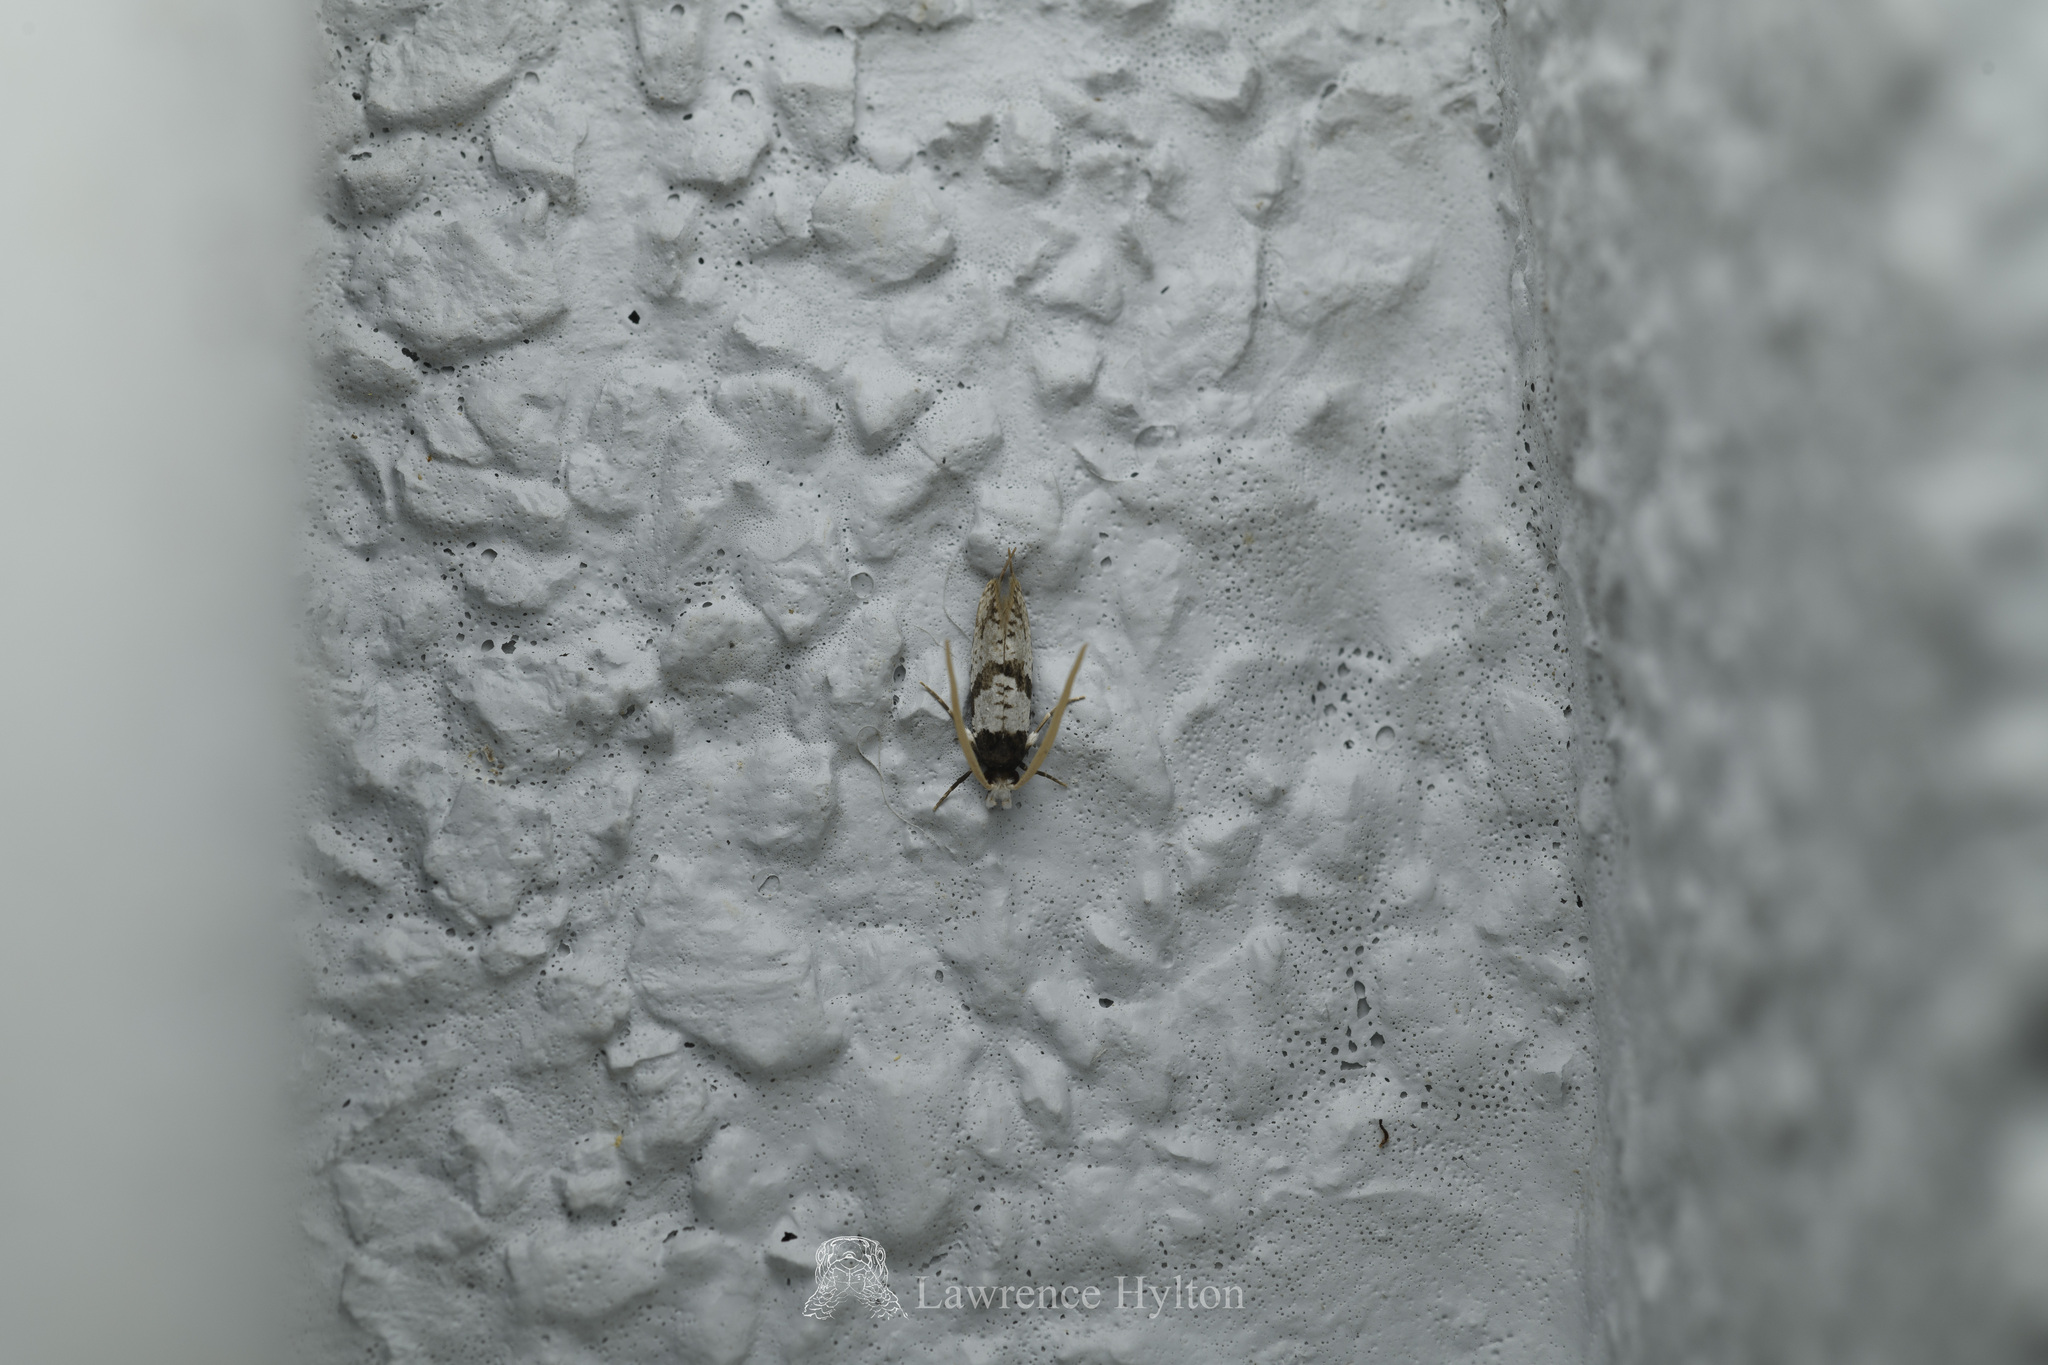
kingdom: Animalia
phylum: Arthropoda
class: Insecta
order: Lepidoptera
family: Tineidae
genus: Thisizima
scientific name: Thisizima fasciaria
